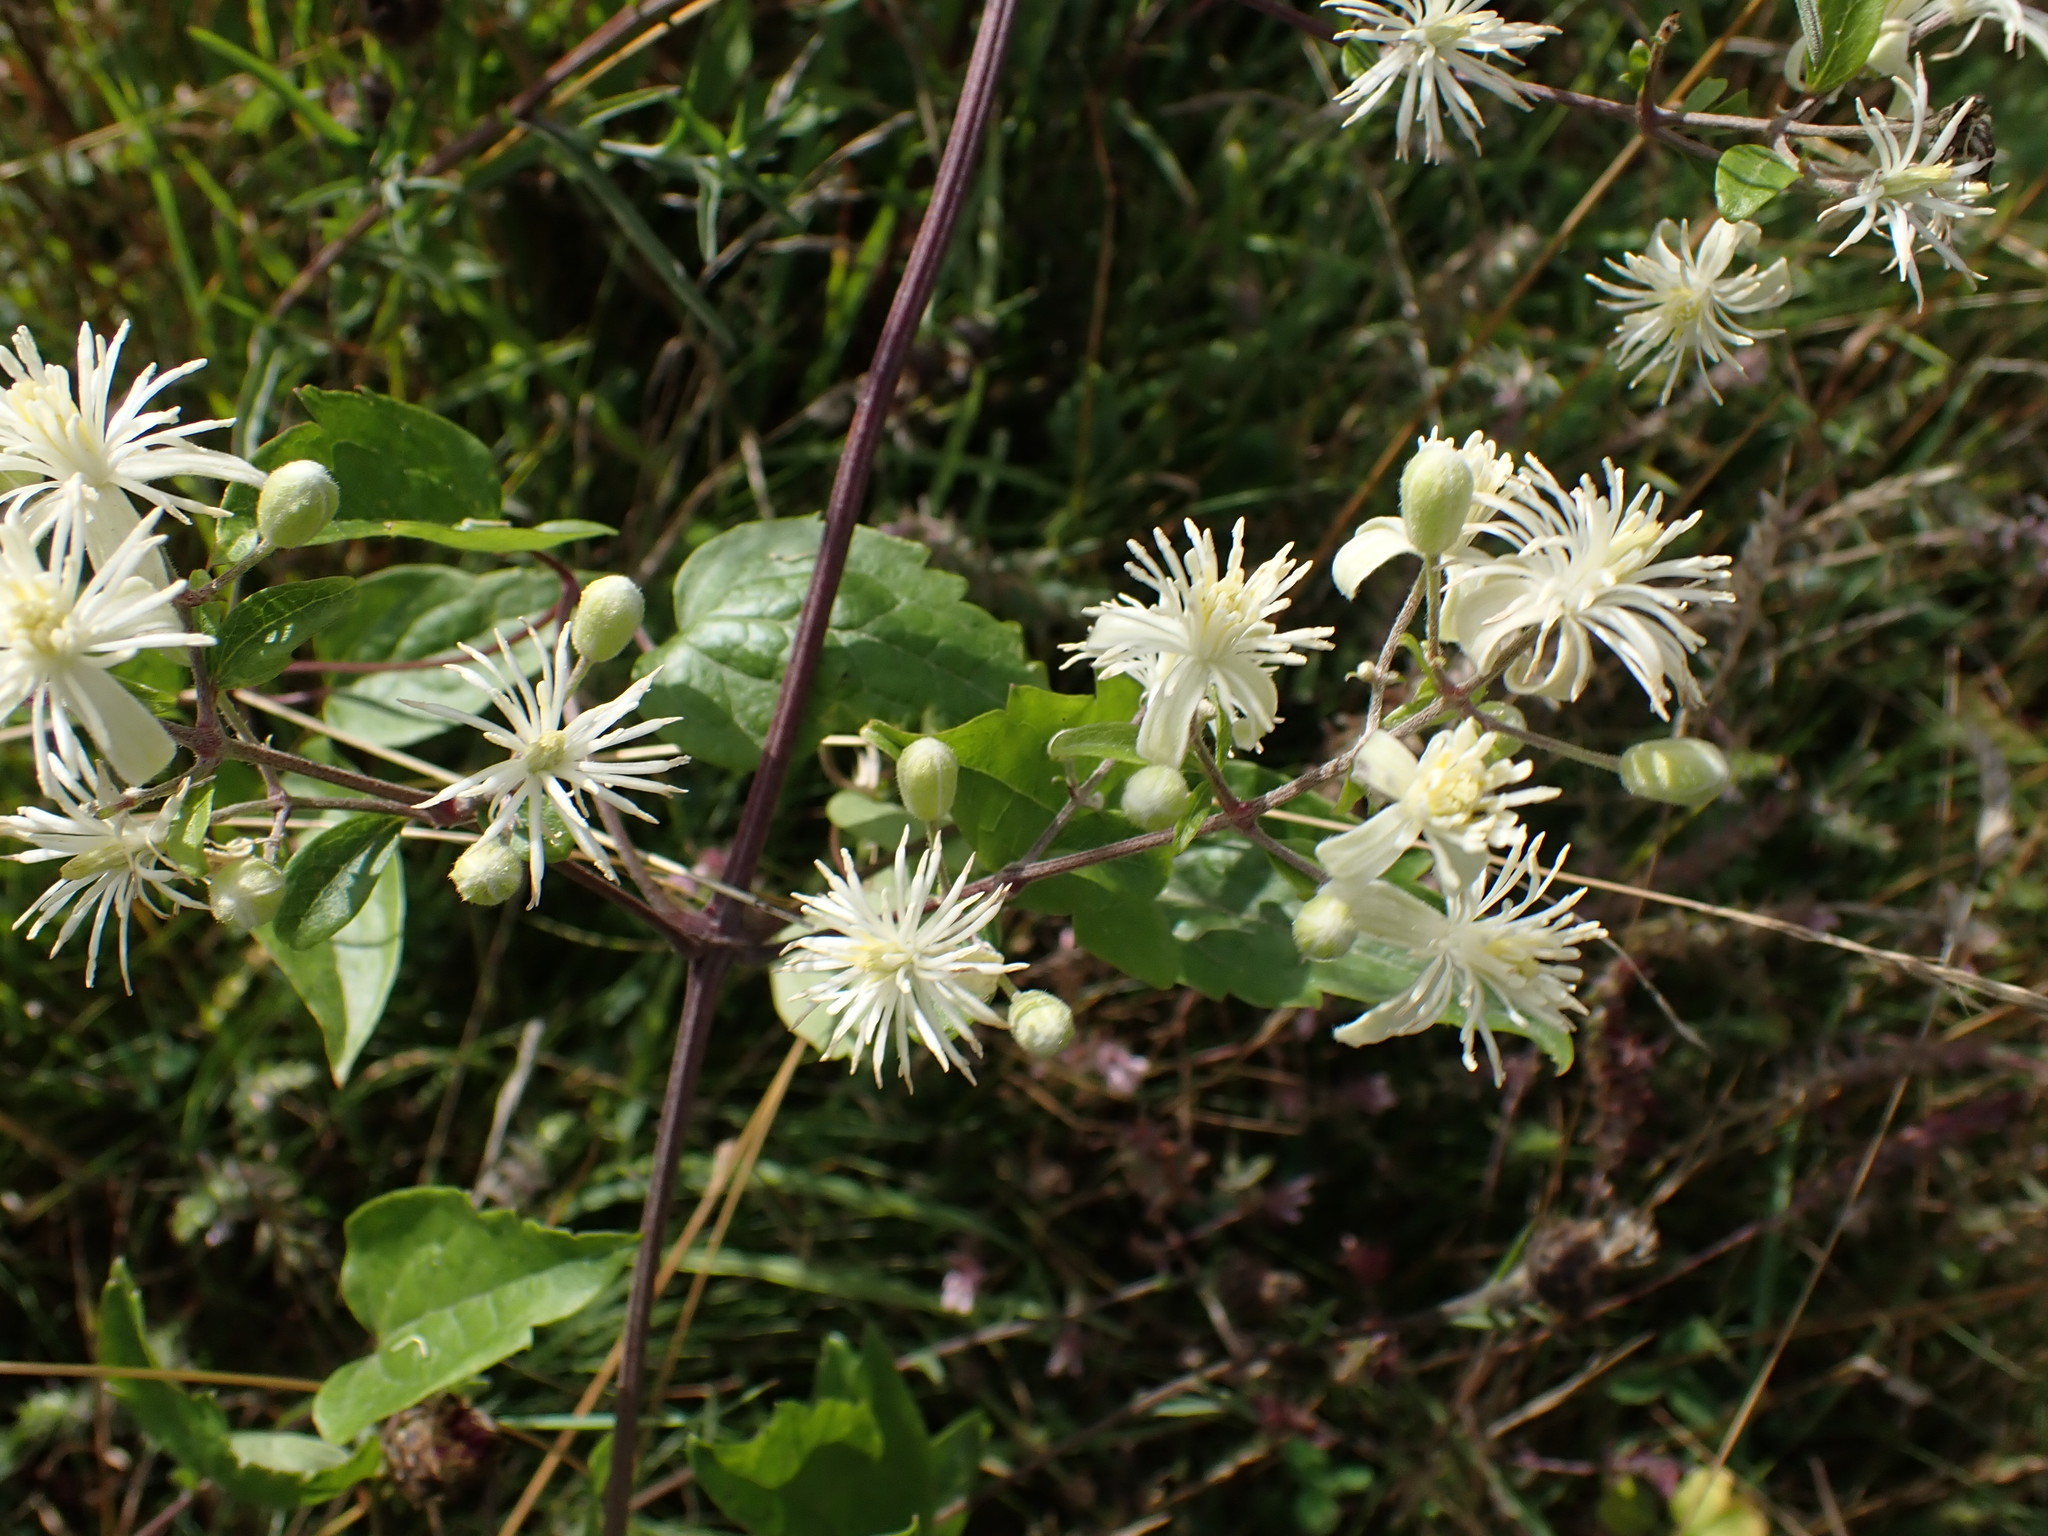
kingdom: Plantae
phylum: Tracheophyta
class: Magnoliopsida
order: Ranunculales
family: Ranunculaceae
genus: Clematis
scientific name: Clematis vitalba
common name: Evergreen clematis
